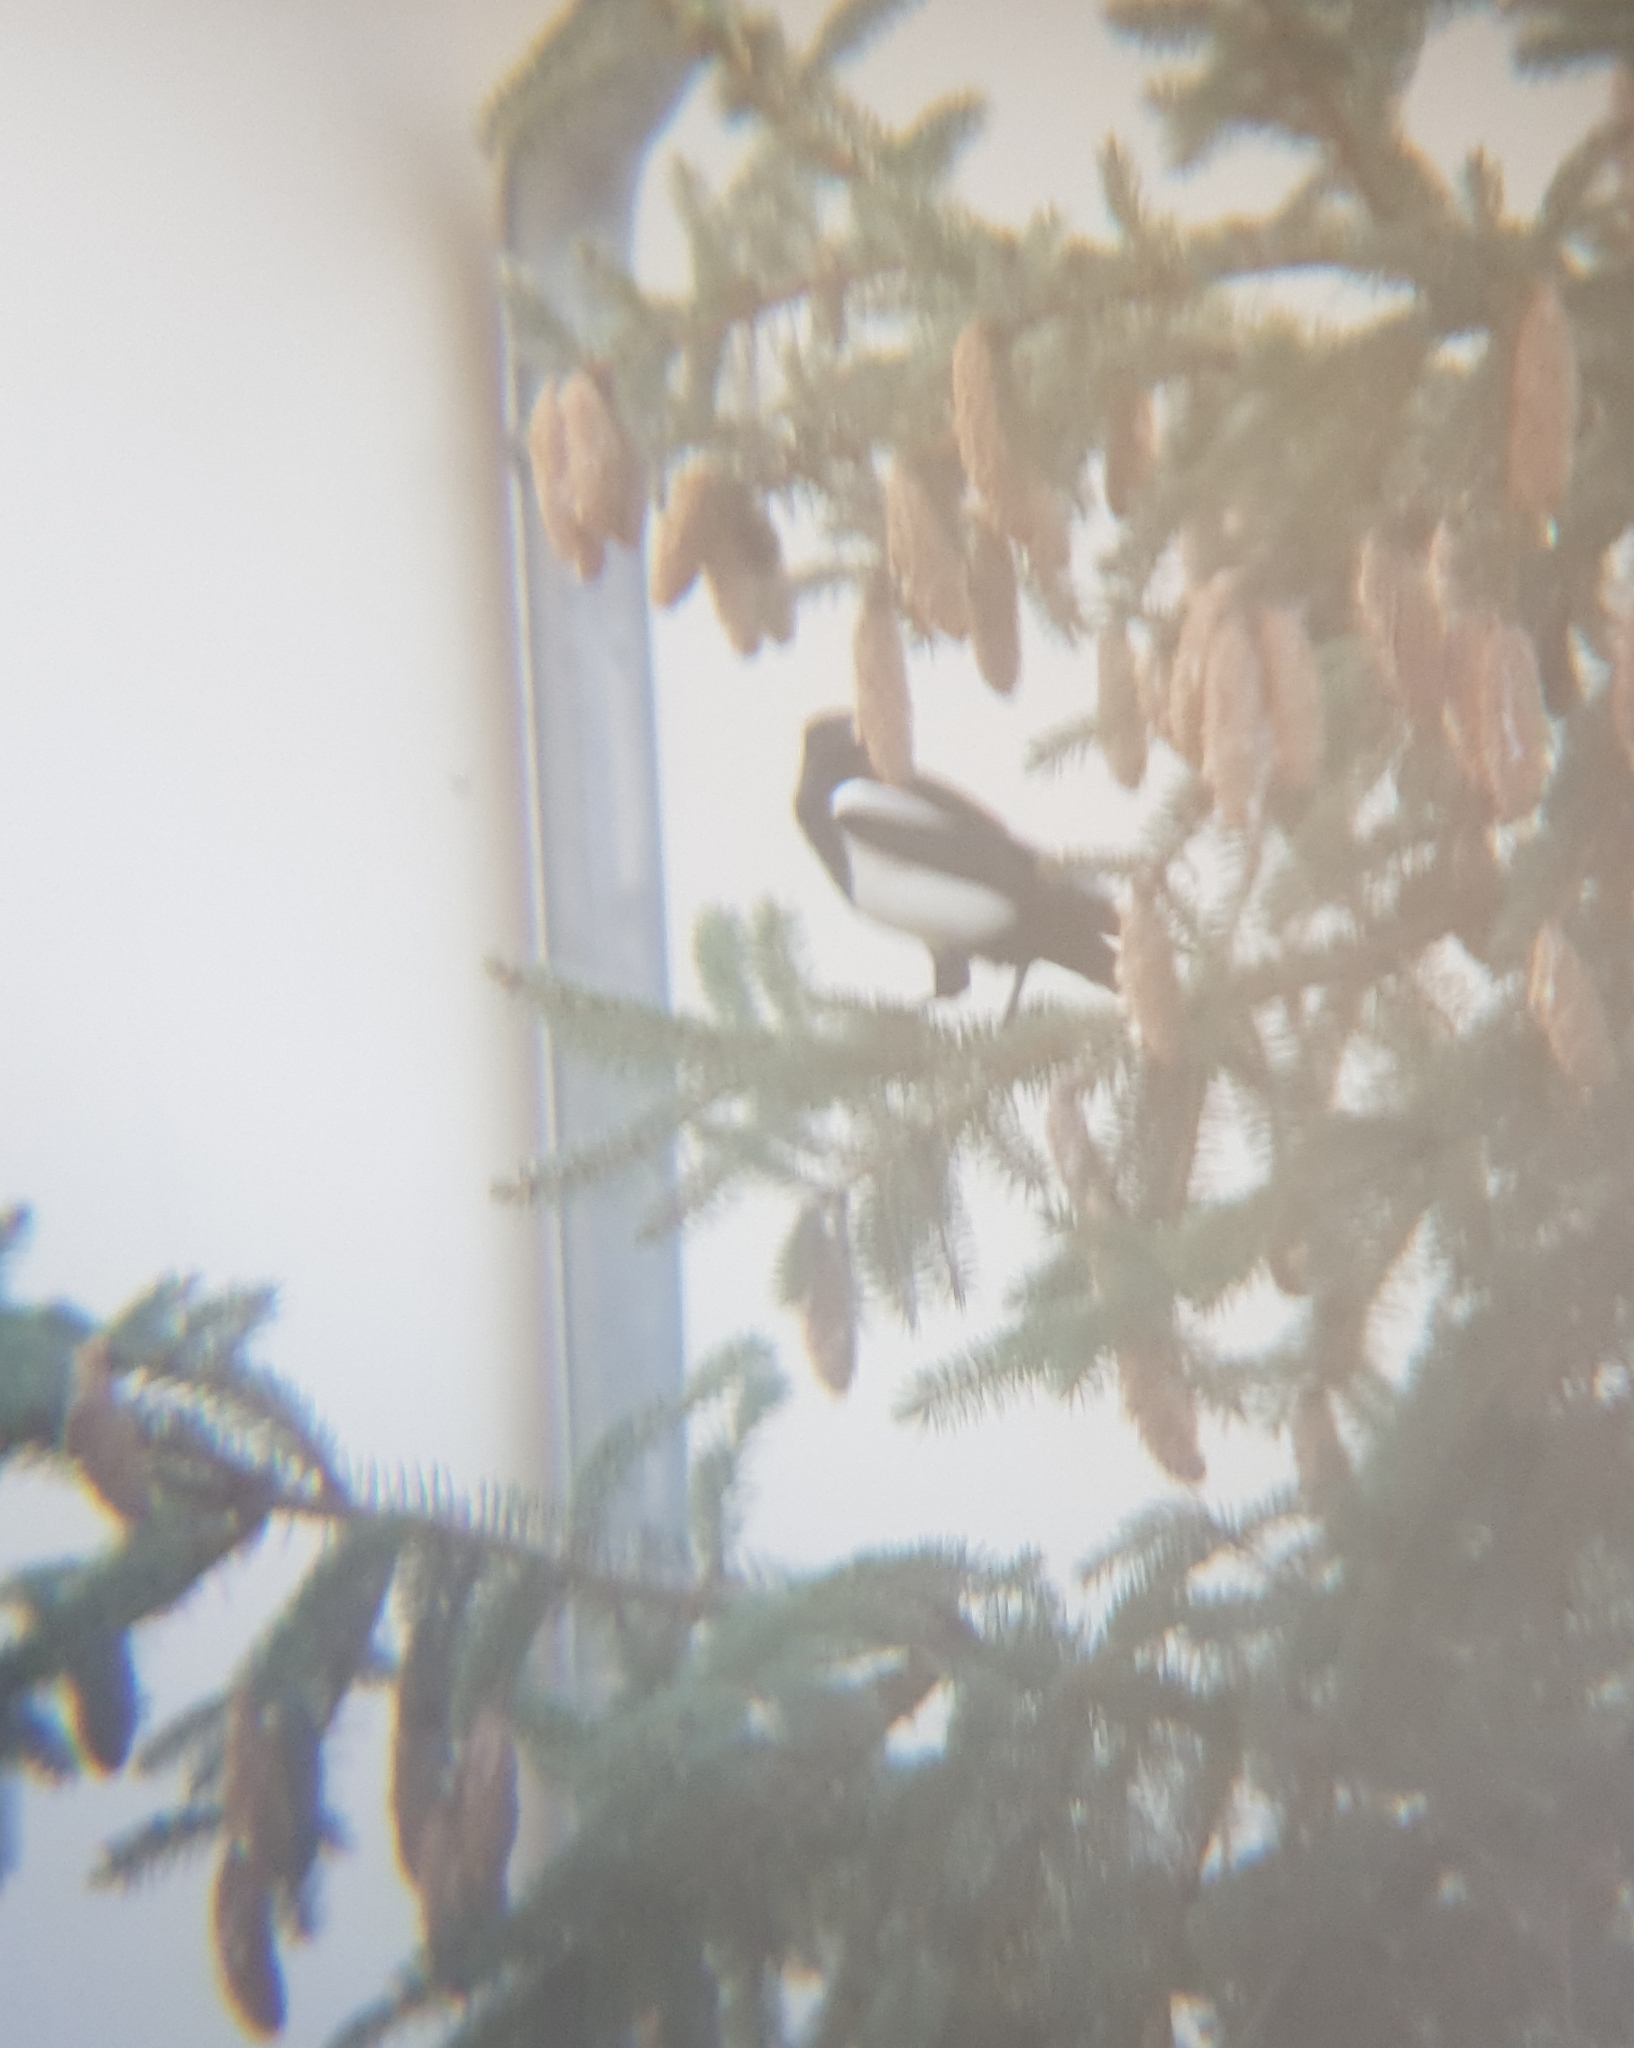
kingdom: Animalia
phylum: Chordata
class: Aves
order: Passeriformes
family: Corvidae
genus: Pica
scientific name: Pica pica
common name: Eurasian magpie
